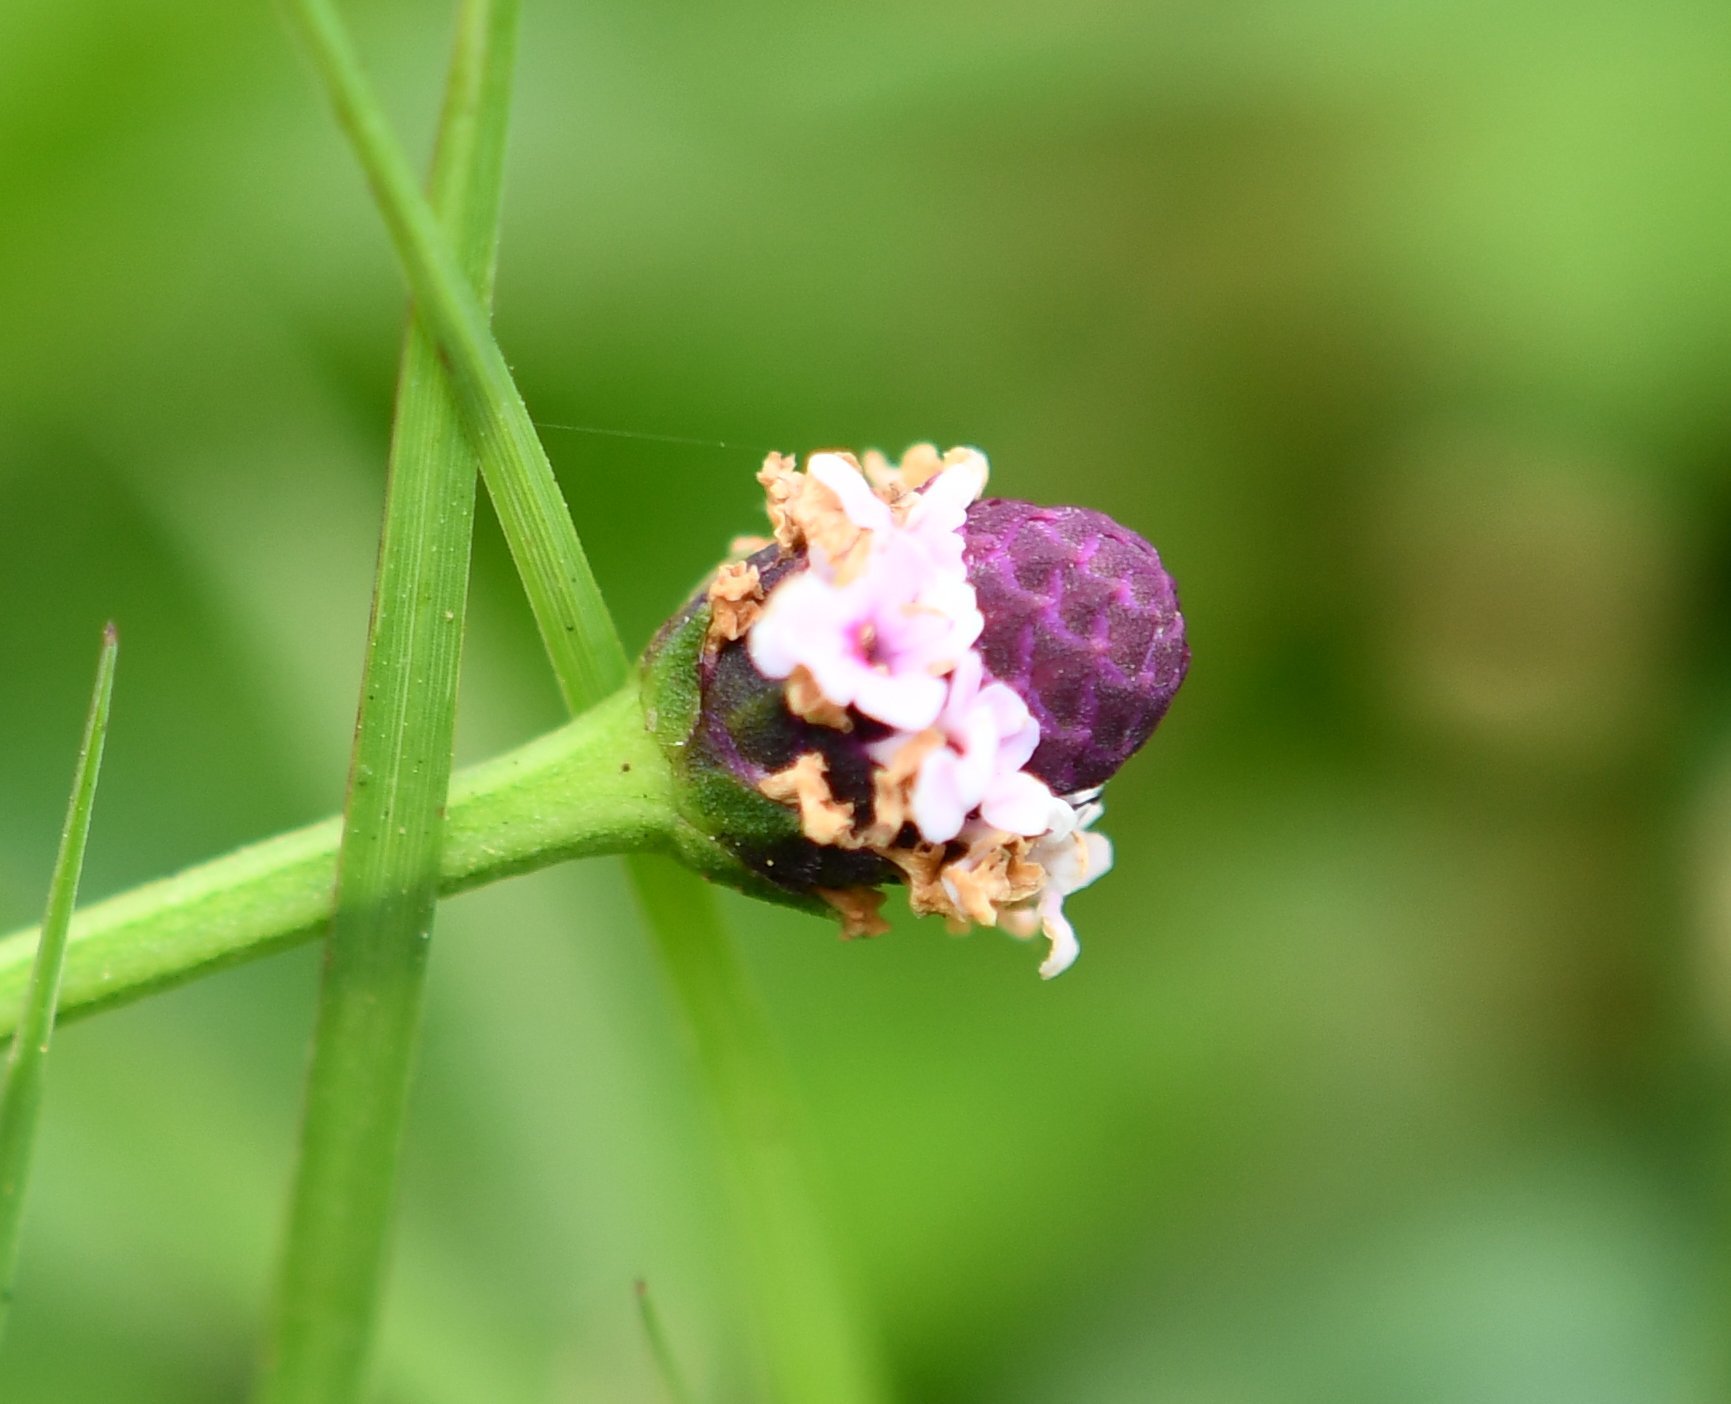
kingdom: Plantae
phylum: Tracheophyta
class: Magnoliopsida
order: Lamiales
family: Verbenaceae
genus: Phyla
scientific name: Phyla nodiflora
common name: Frogfruit
